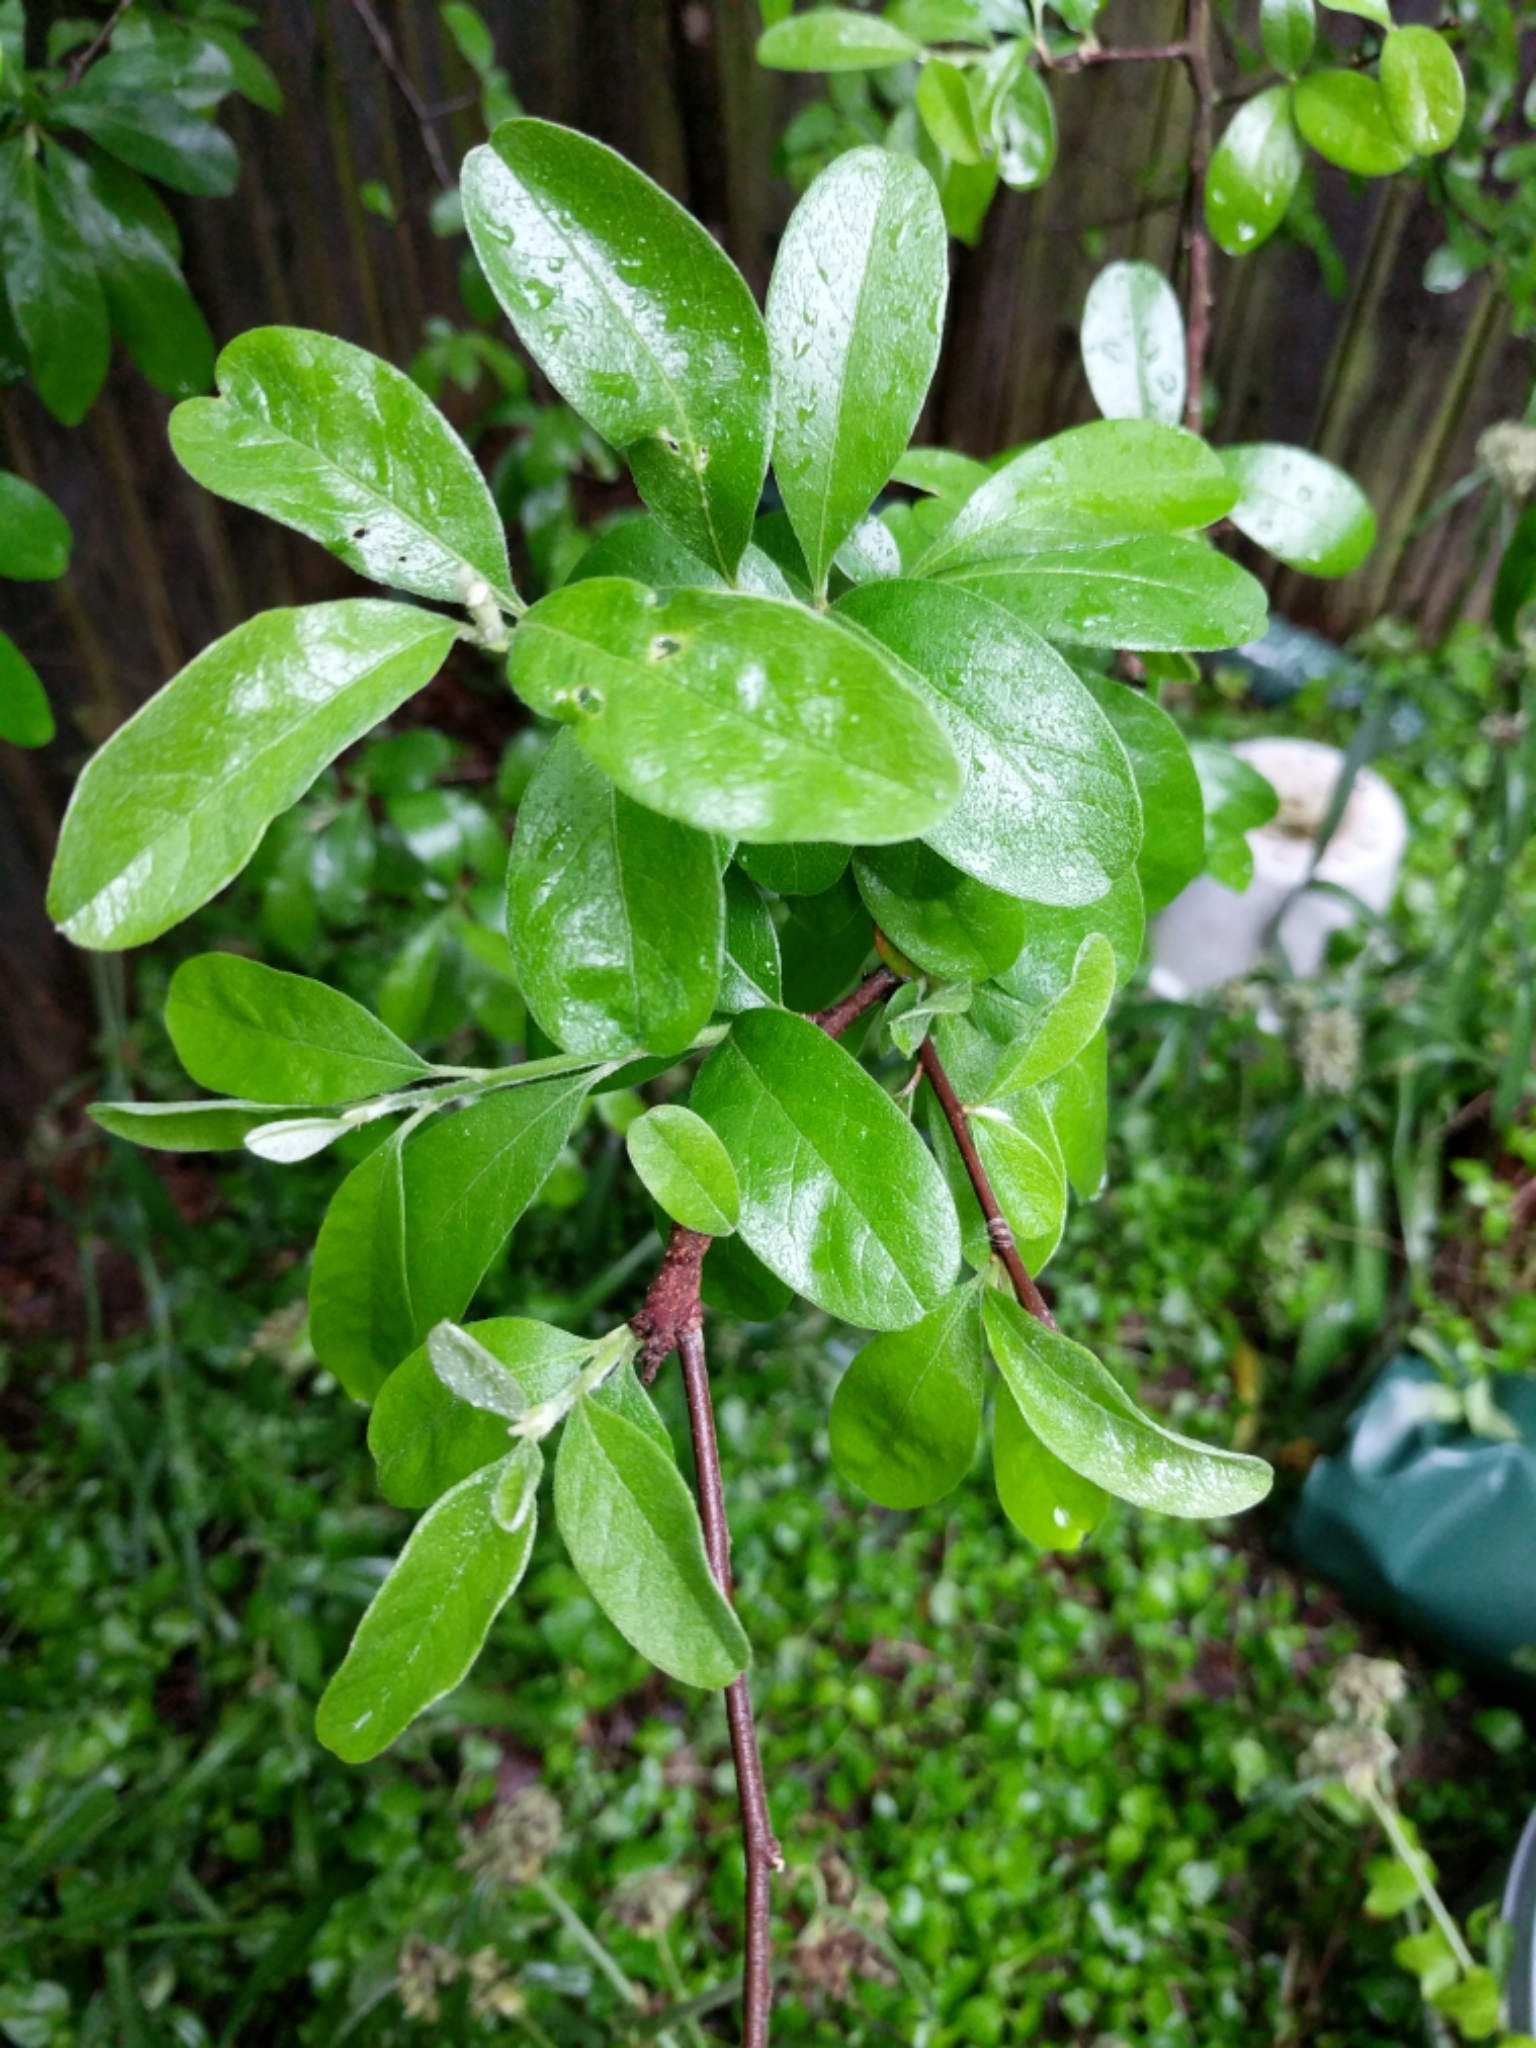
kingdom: Plantae
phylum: Tracheophyta
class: Magnoliopsida
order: Ericales
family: Sapotaceae
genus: Sideroxylon
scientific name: Sideroxylon lanuginosum
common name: Chittamwood
